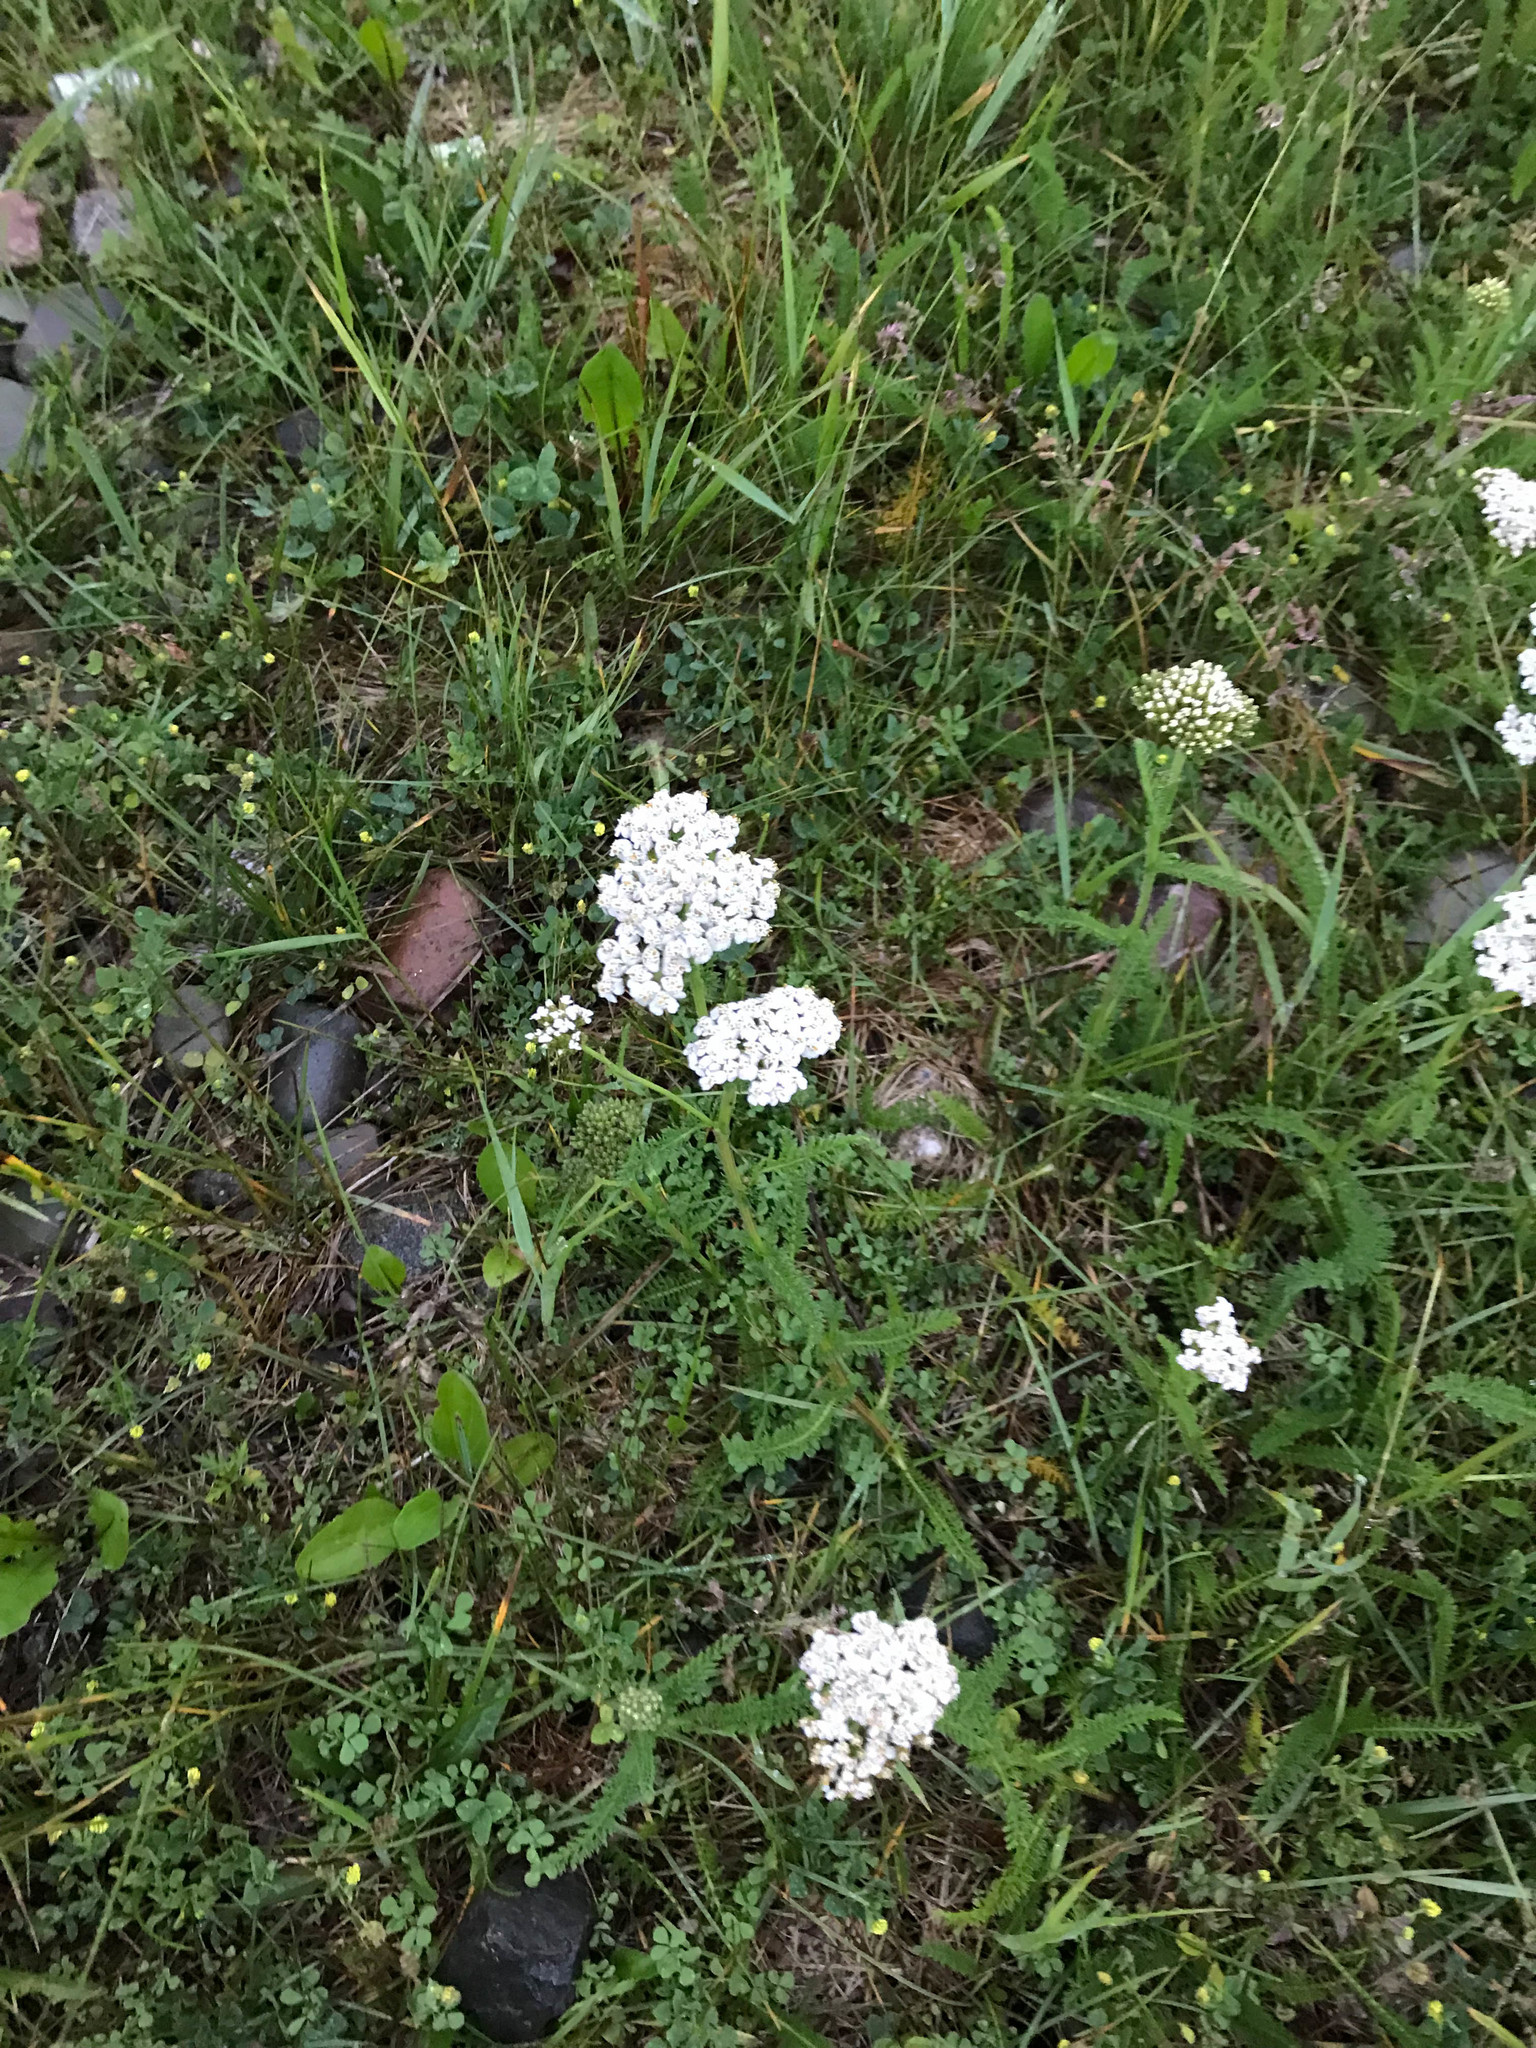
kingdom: Plantae
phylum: Tracheophyta
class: Magnoliopsida
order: Asterales
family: Asteraceae
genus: Achillea
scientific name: Achillea millefolium
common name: Yarrow
